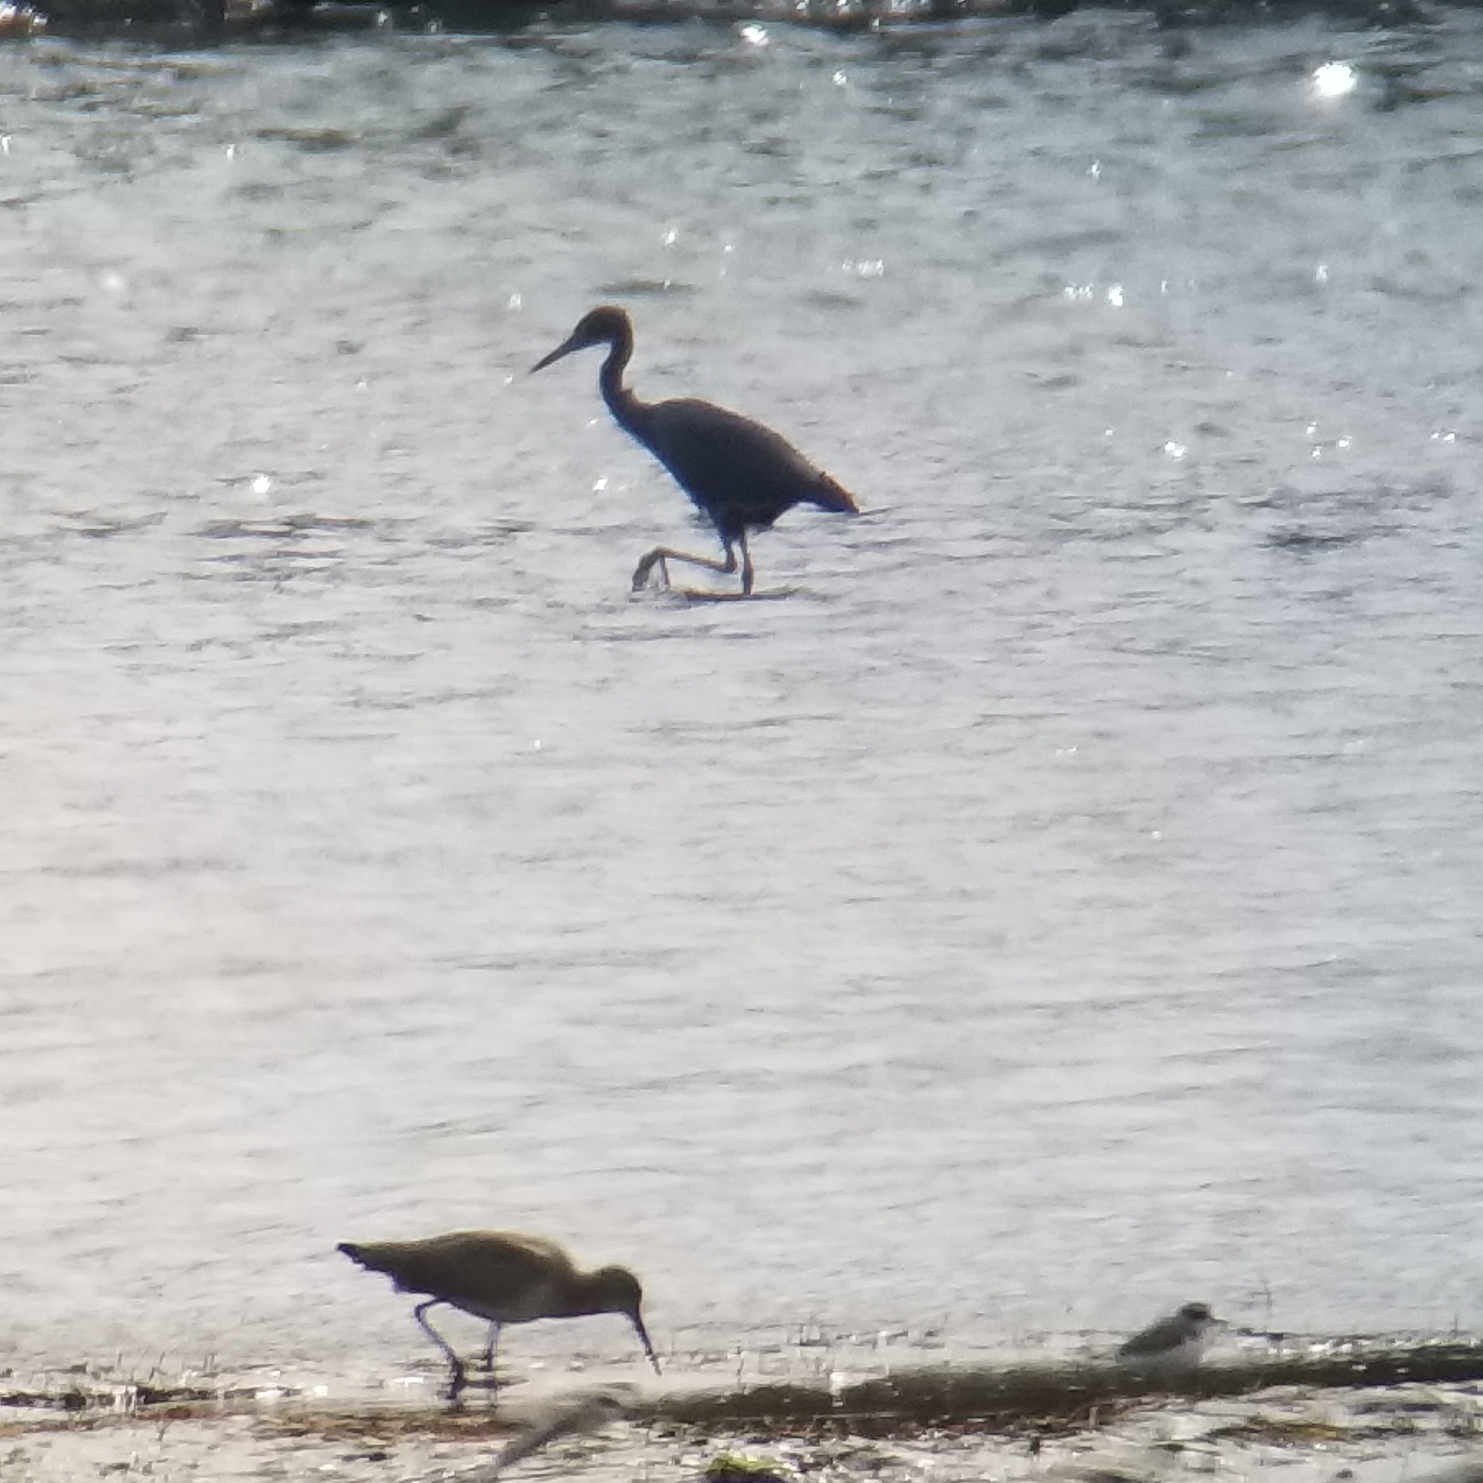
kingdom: Animalia
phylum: Chordata
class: Aves
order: Pelecaniformes
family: Ardeidae
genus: Egretta
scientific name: Egretta caerulea
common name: Little blue heron
